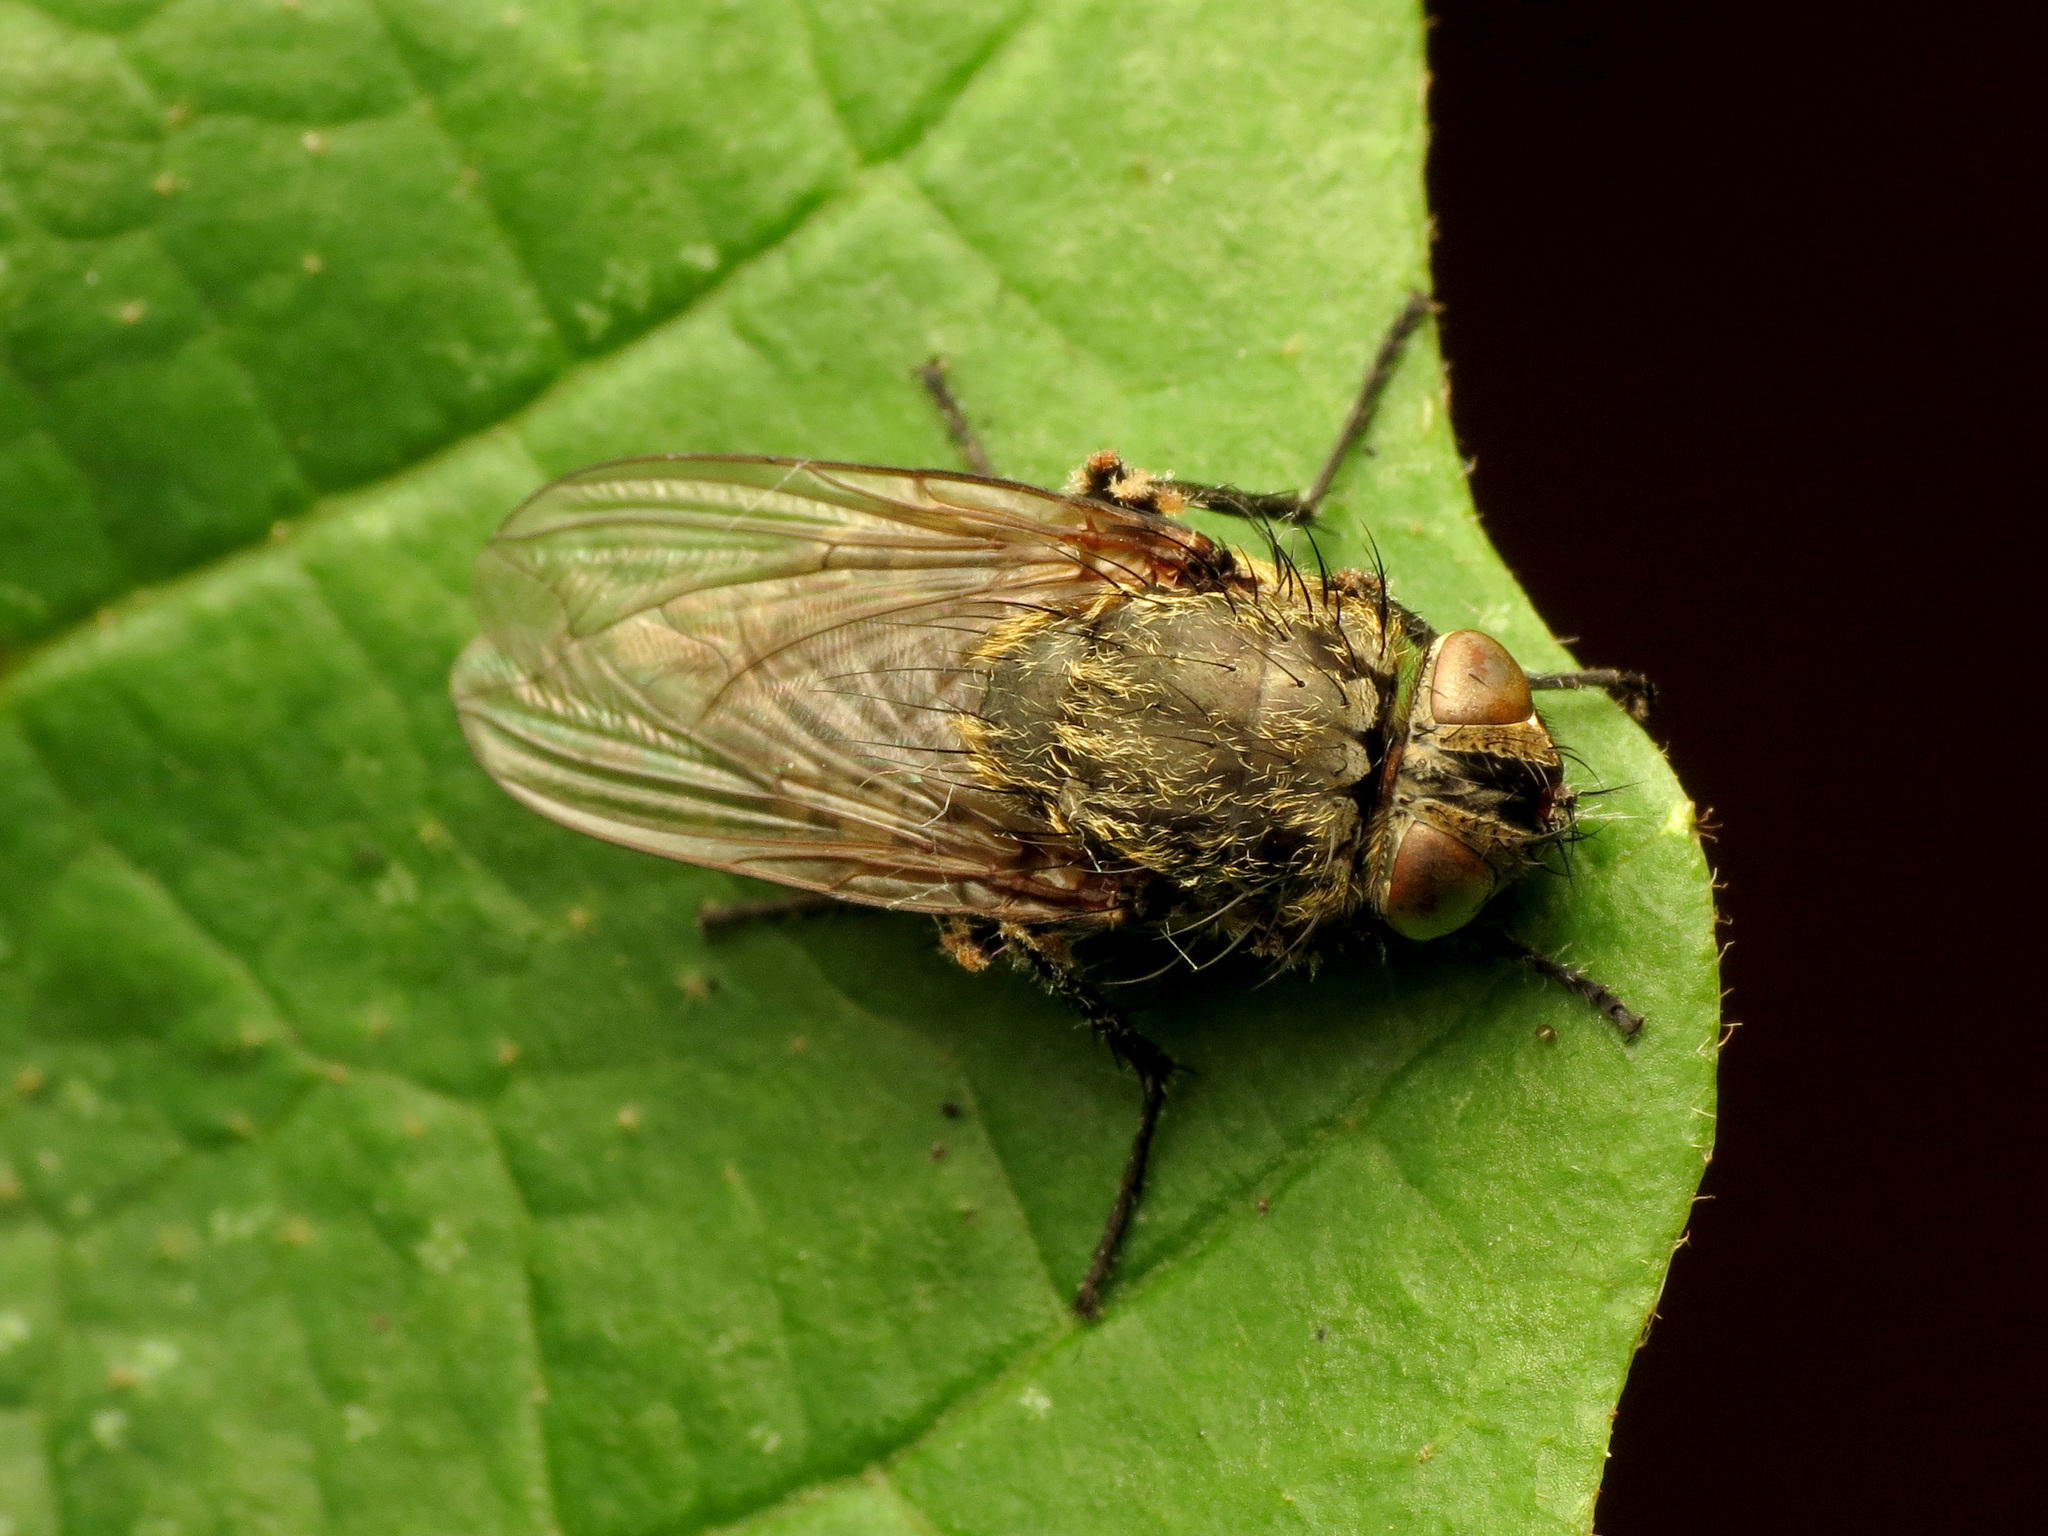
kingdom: Animalia
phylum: Arthropoda
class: Insecta
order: Diptera
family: Polleniidae
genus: Pollenia
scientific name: Pollenia
